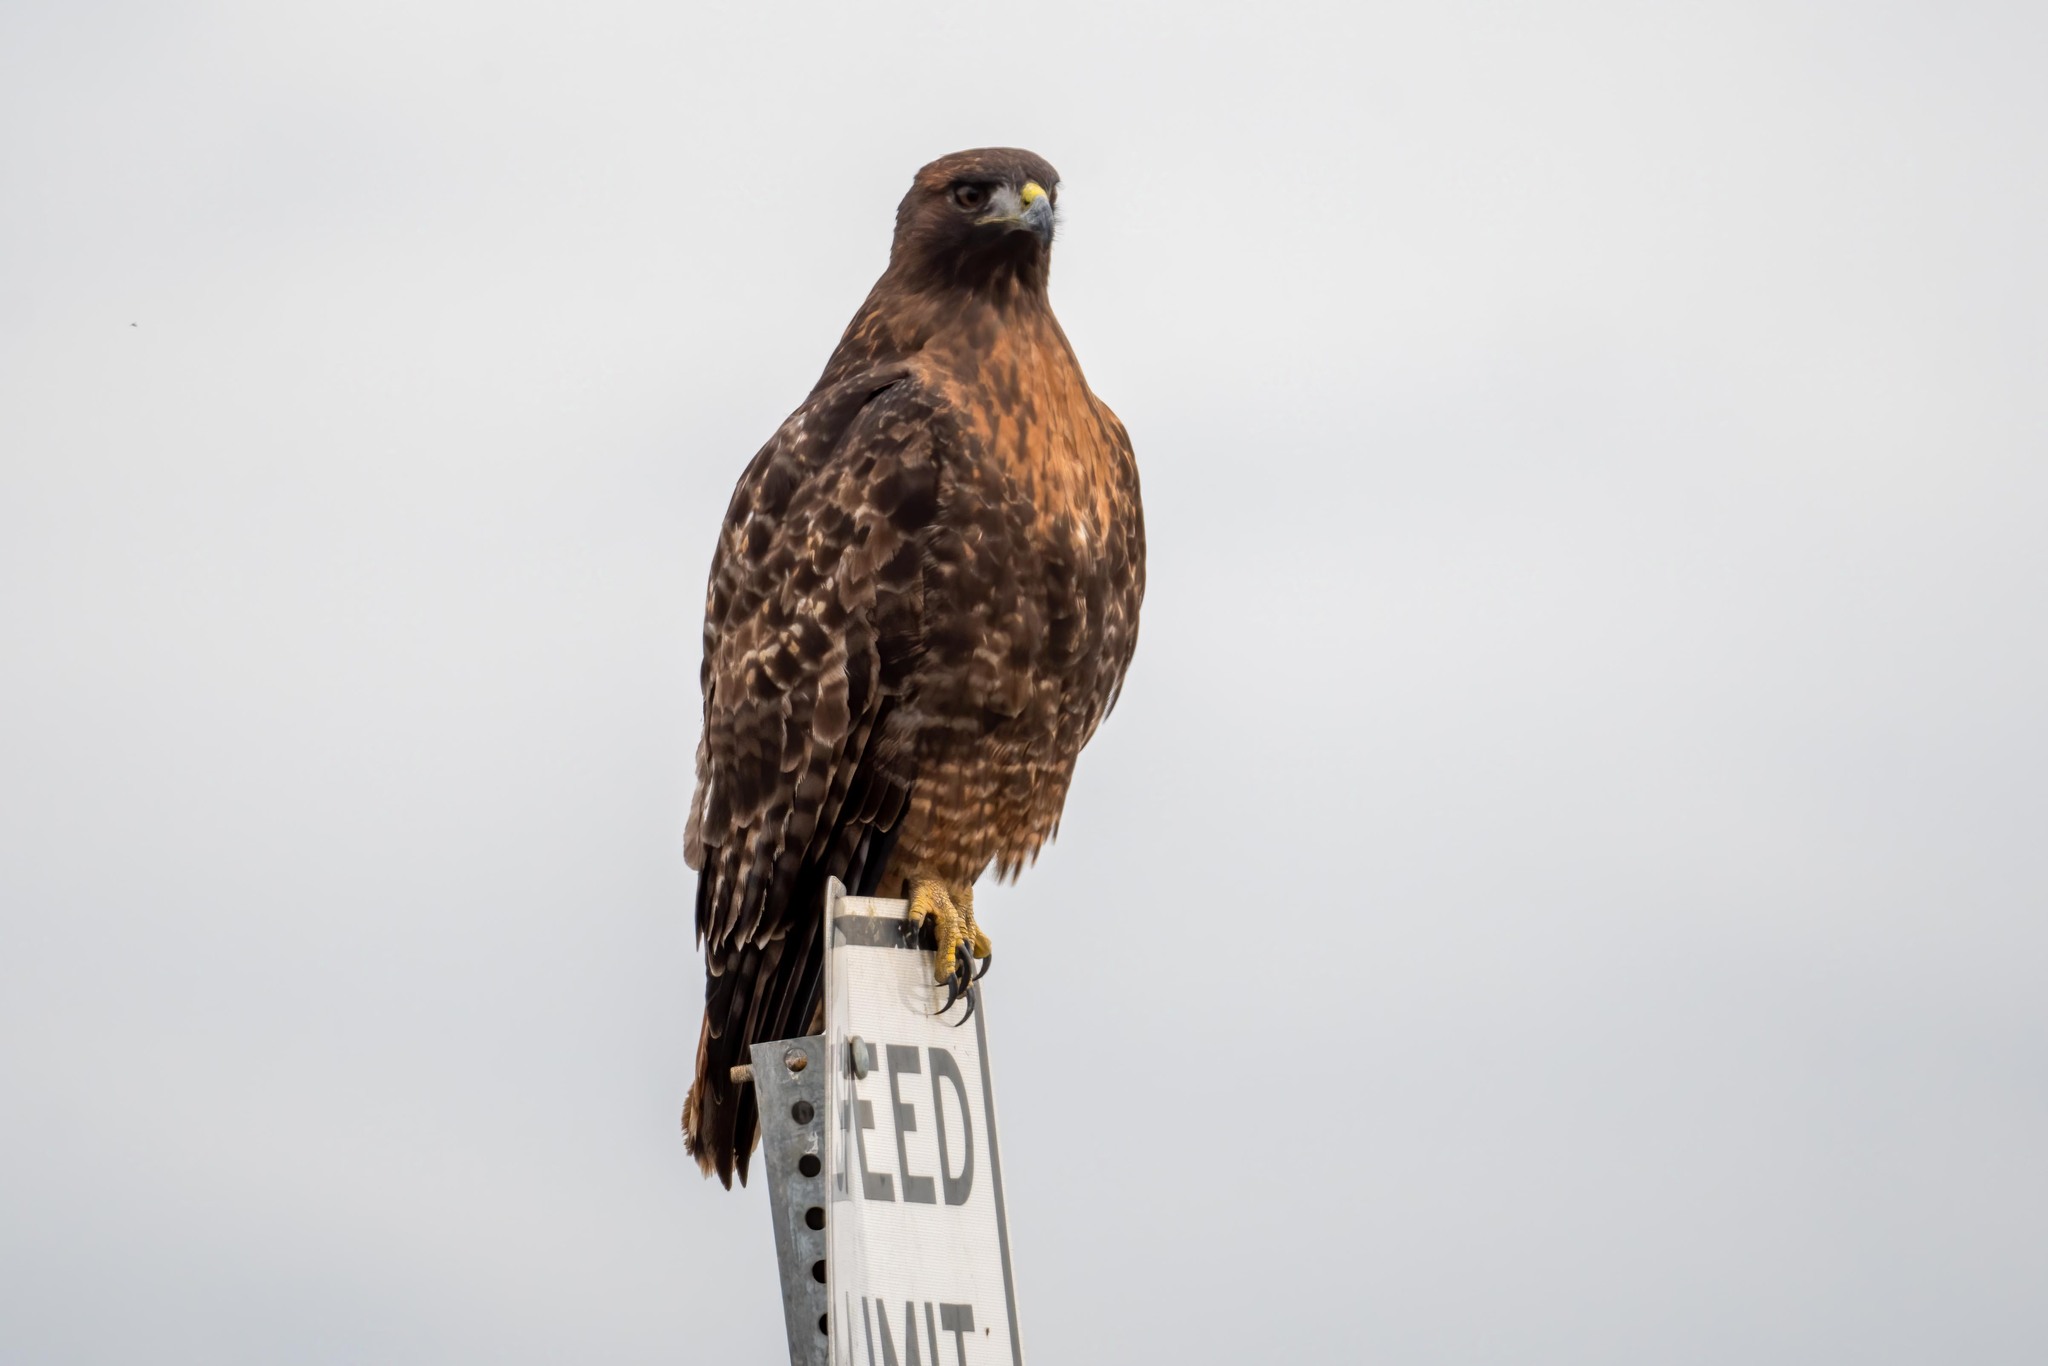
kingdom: Animalia
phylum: Chordata
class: Aves
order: Accipitriformes
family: Accipitridae
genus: Buteo
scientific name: Buteo jamaicensis
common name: Red-tailed hawk
